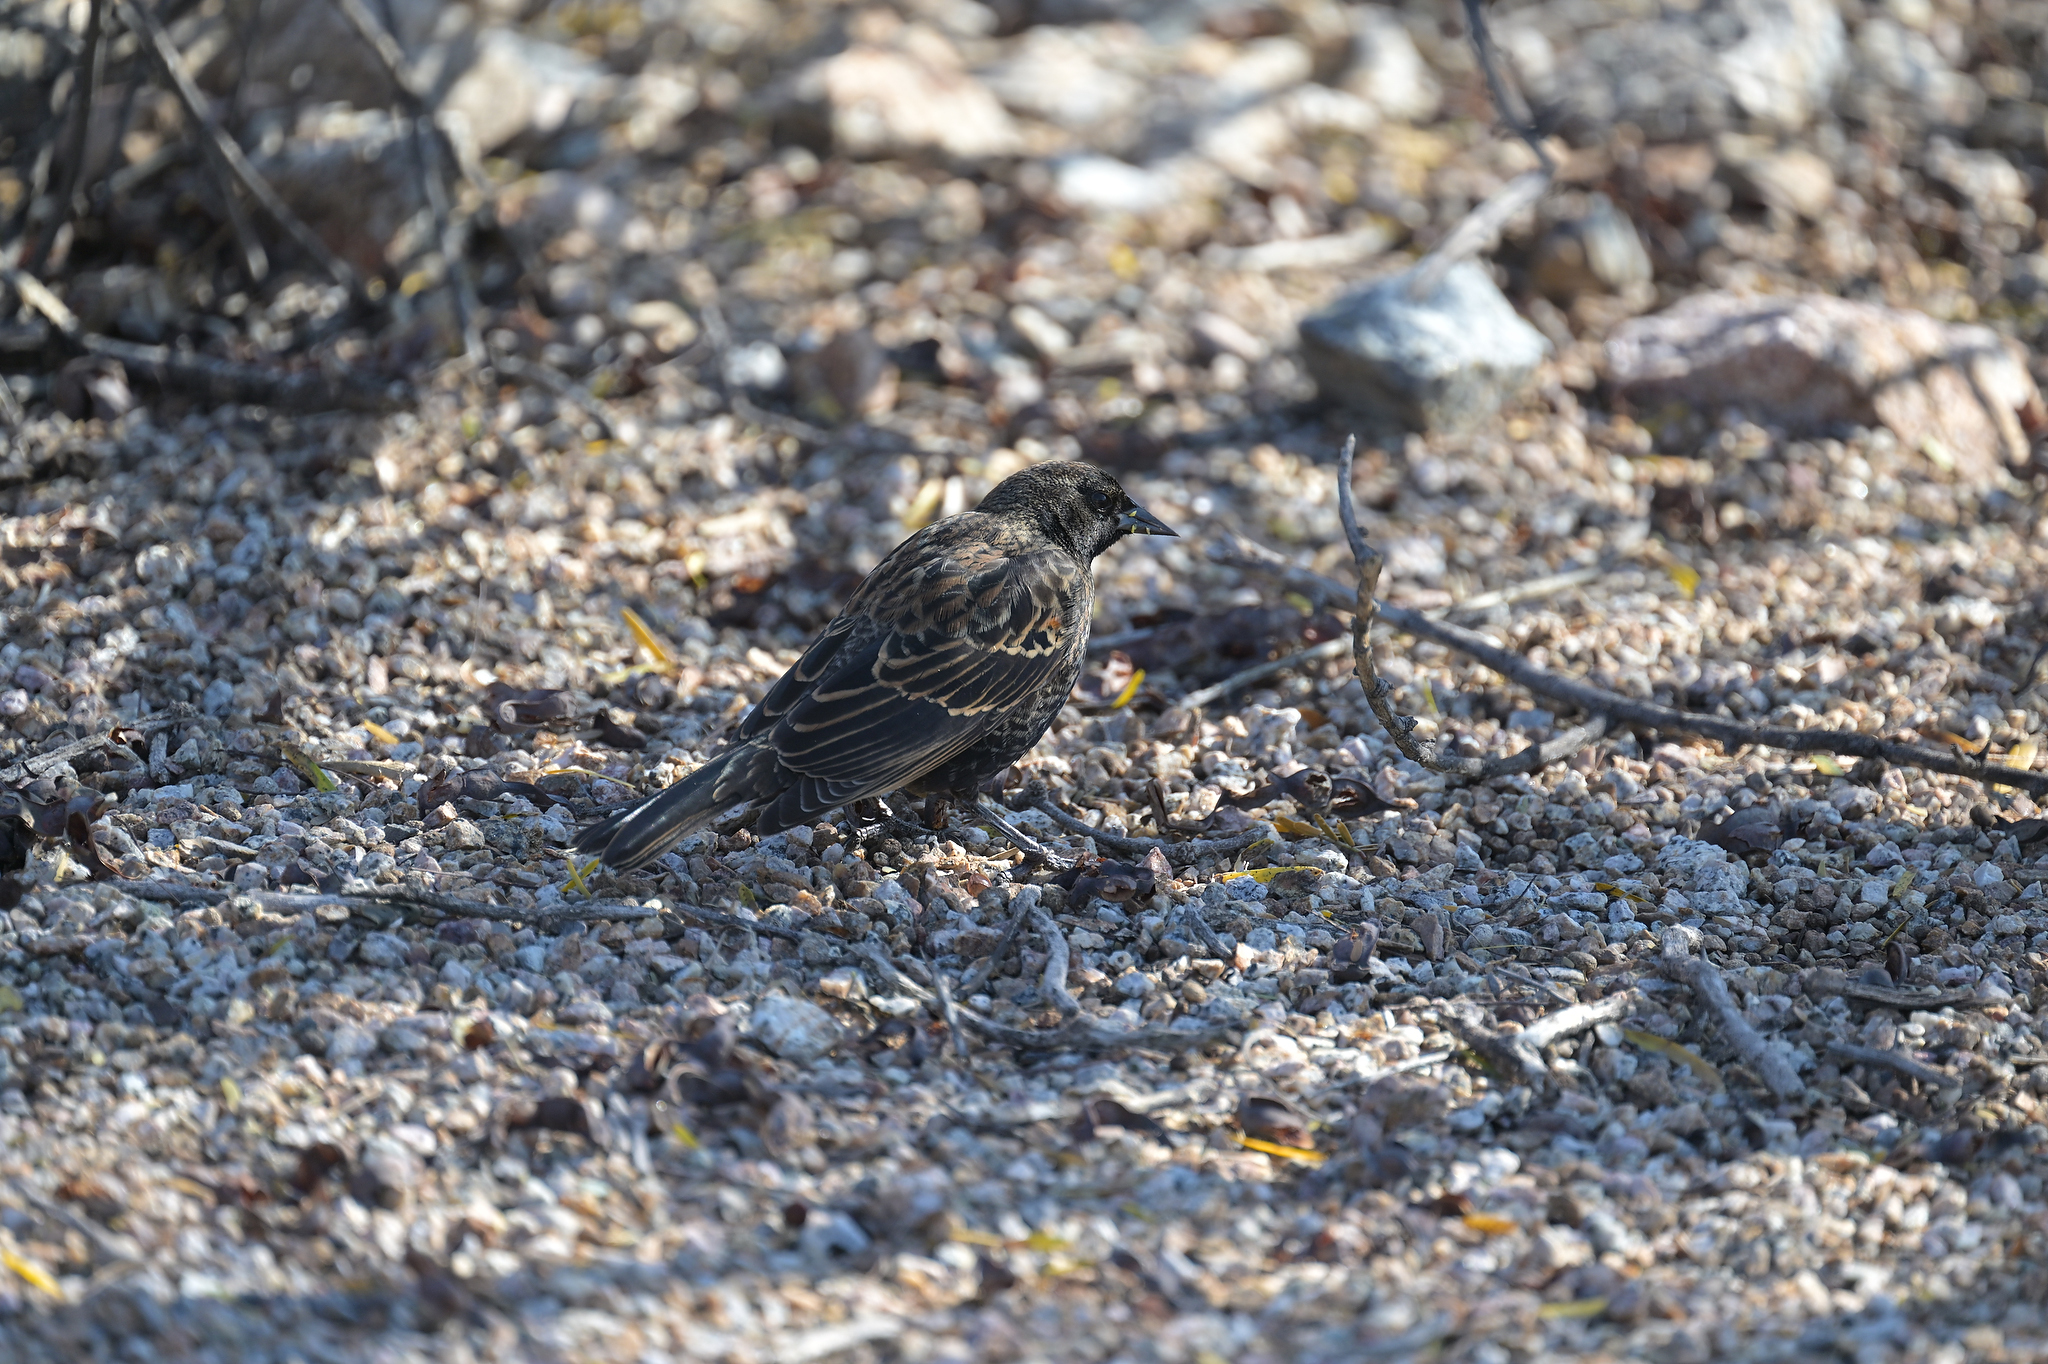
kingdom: Animalia
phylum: Chordata
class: Aves
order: Passeriformes
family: Icteridae
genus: Agelaius
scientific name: Agelaius phoeniceus
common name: Red-winged blackbird
